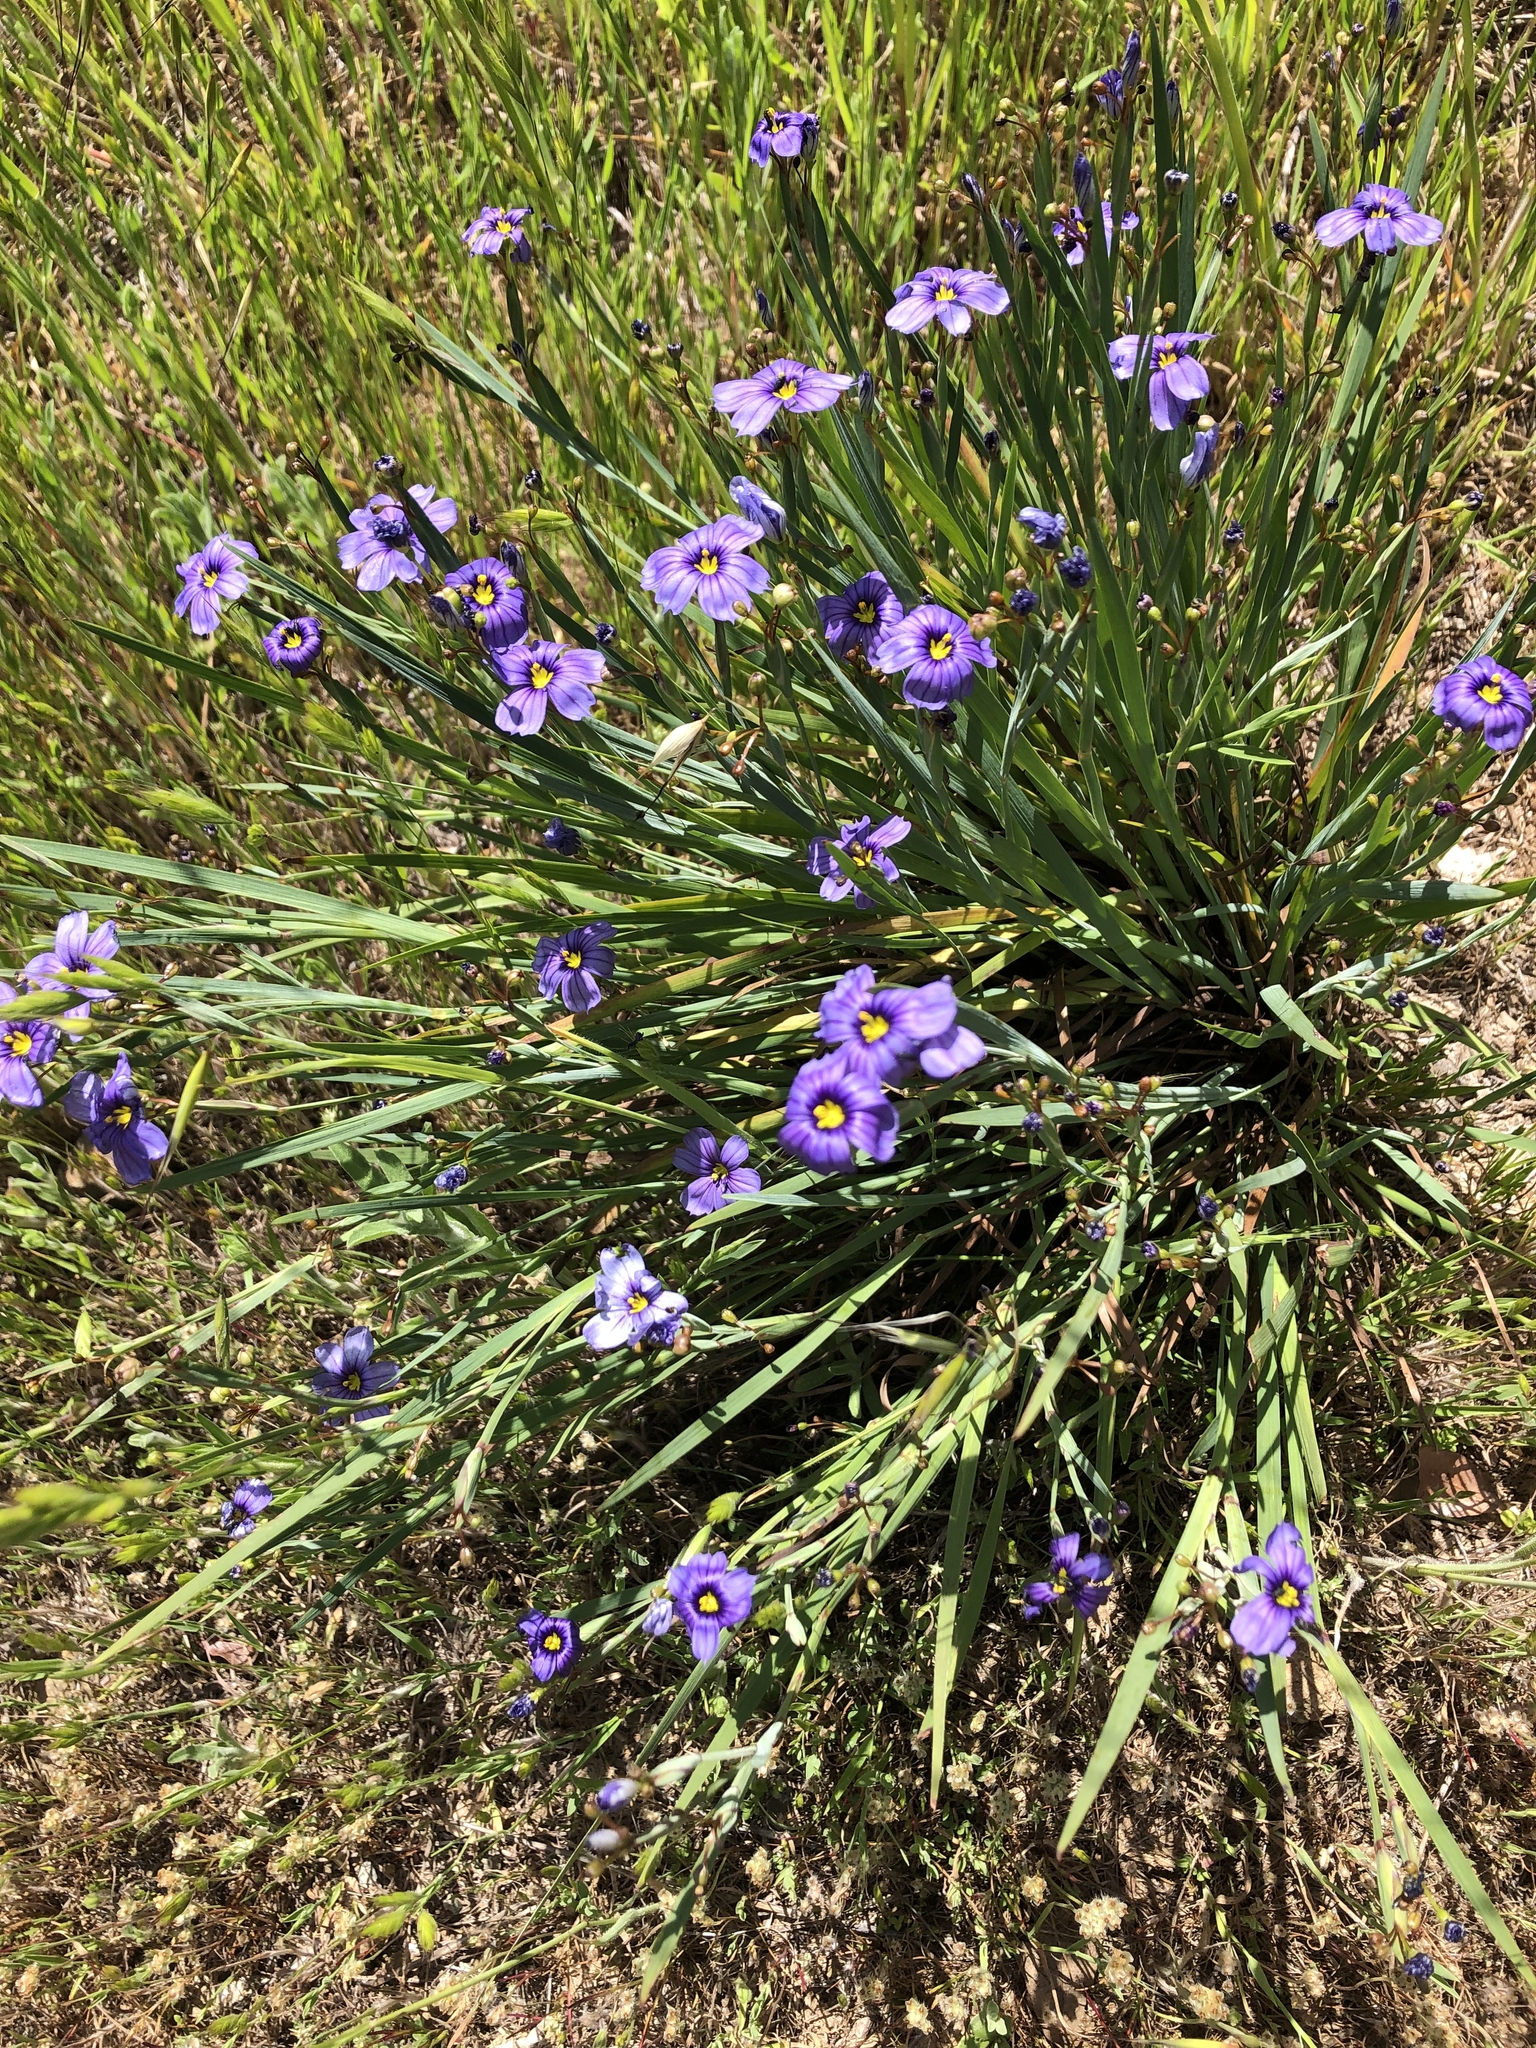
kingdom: Plantae
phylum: Tracheophyta
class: Liliopsida
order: Asparagales
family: Iridaceae
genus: Sisyrinchium
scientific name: Sisyrinchium bellum
